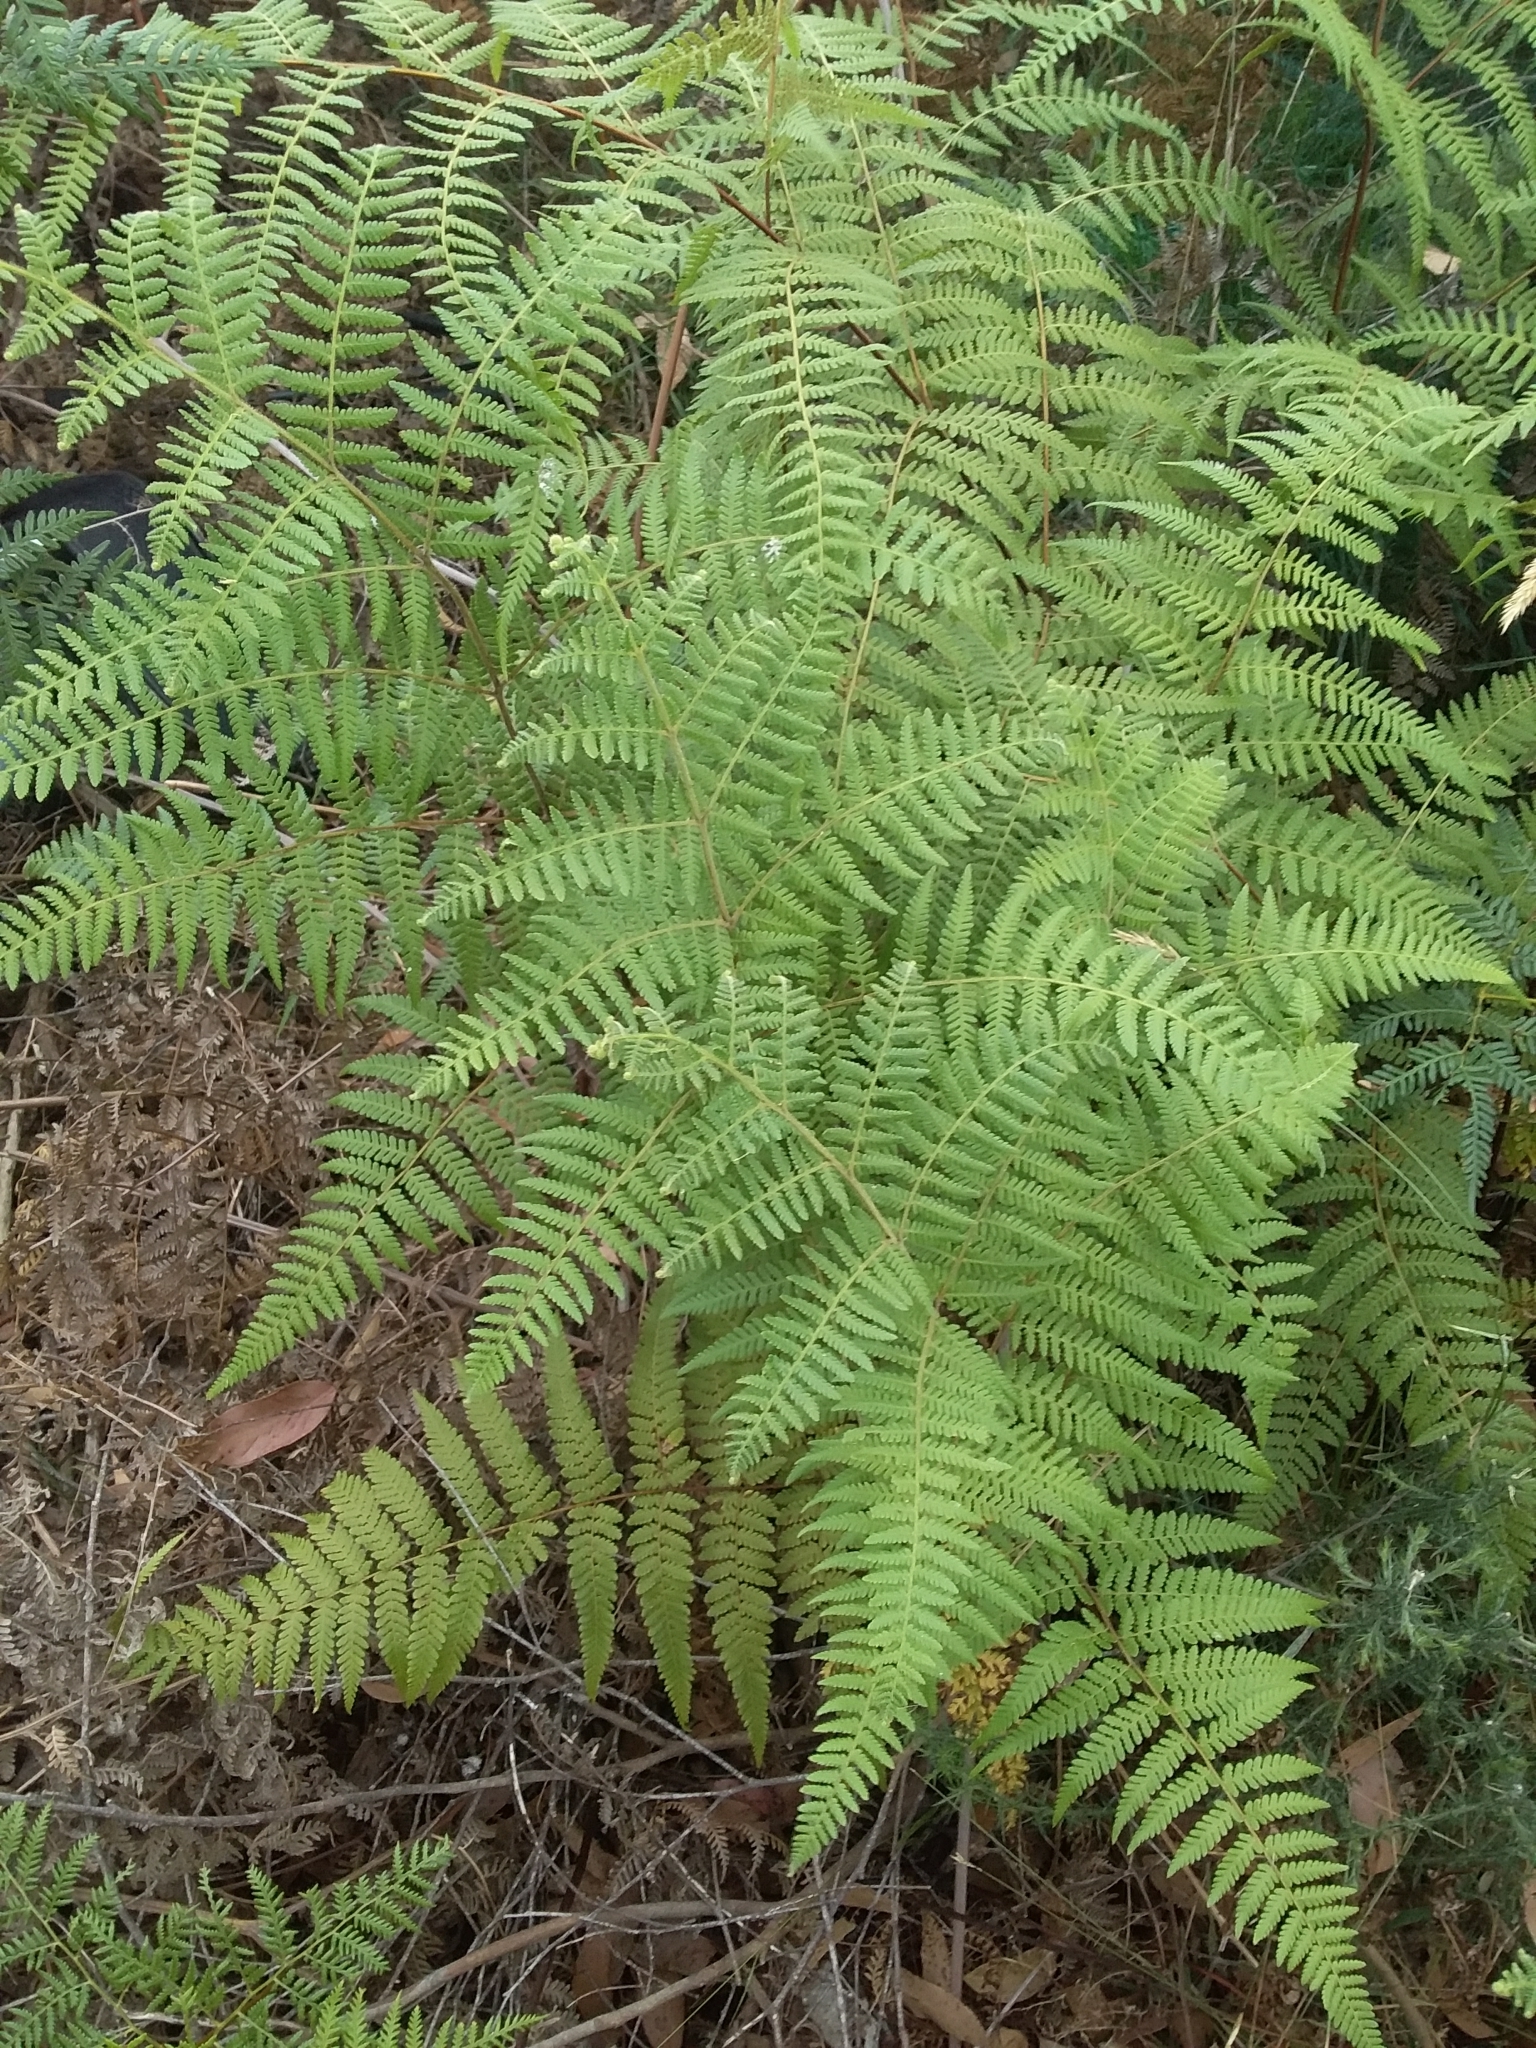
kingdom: Plantae
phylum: Tracheophyta
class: Polypodiopsida
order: Polypodiales
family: Dennstaedtiaceae
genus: Hypolepis
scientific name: Hypolepis rugosula
